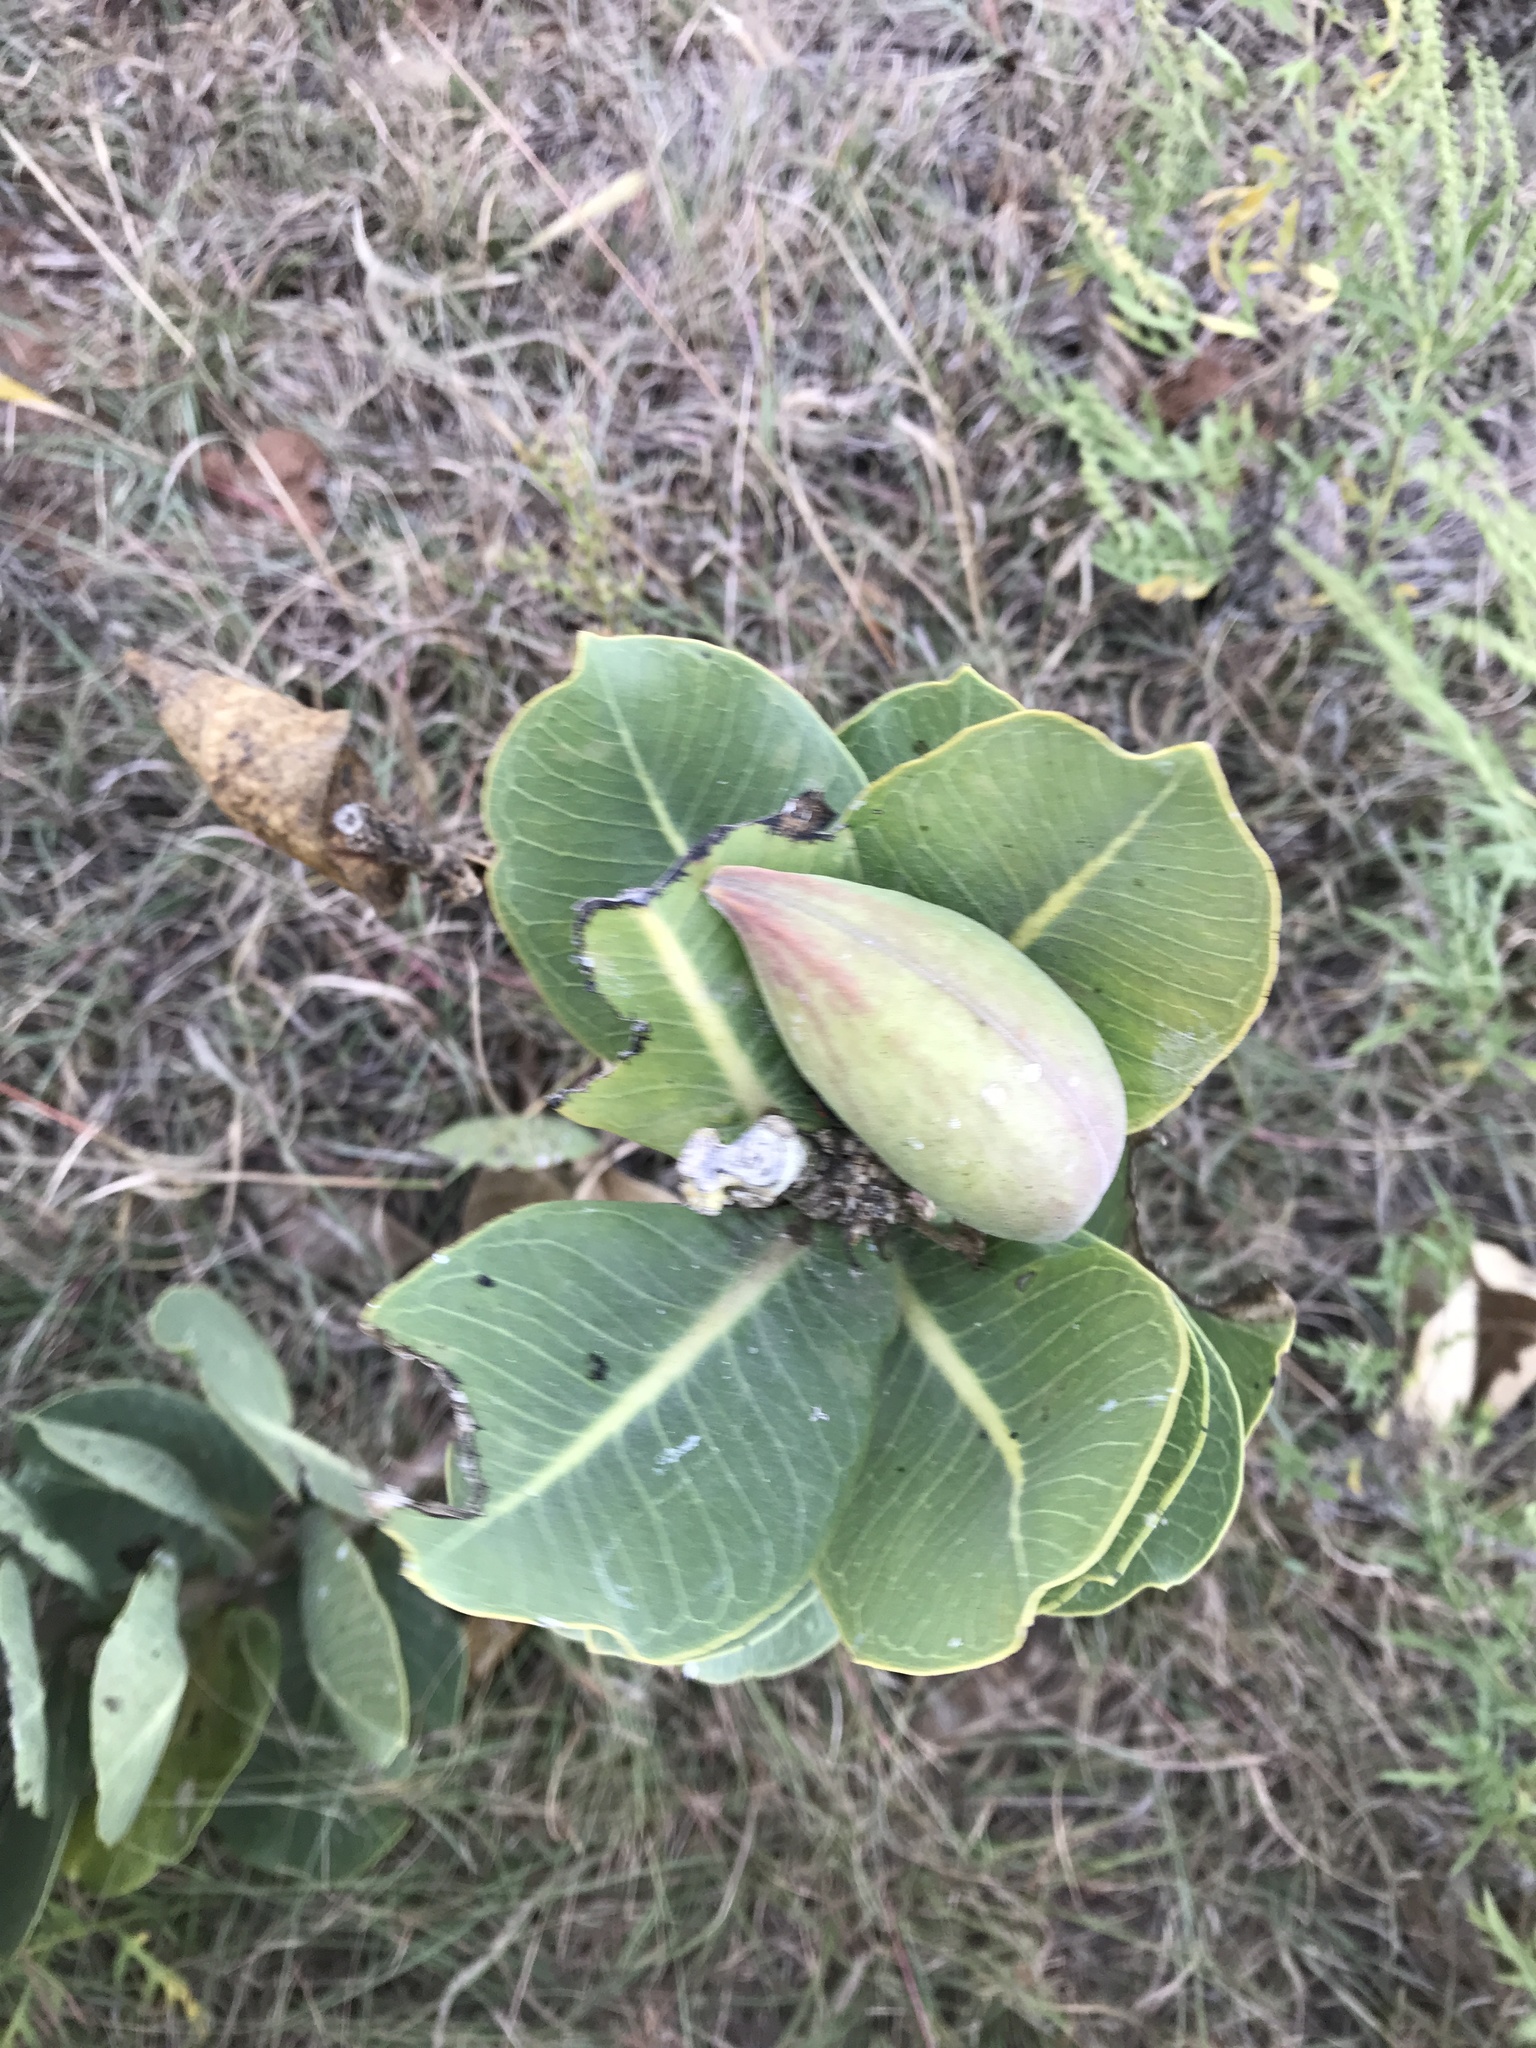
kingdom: Plantae
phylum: Tracheophyta
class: Magnoliopsida
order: Gentianales
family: Apocynaceae
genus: Asclepias
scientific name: Asclepias latifolia
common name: Broadleaf milkweed
